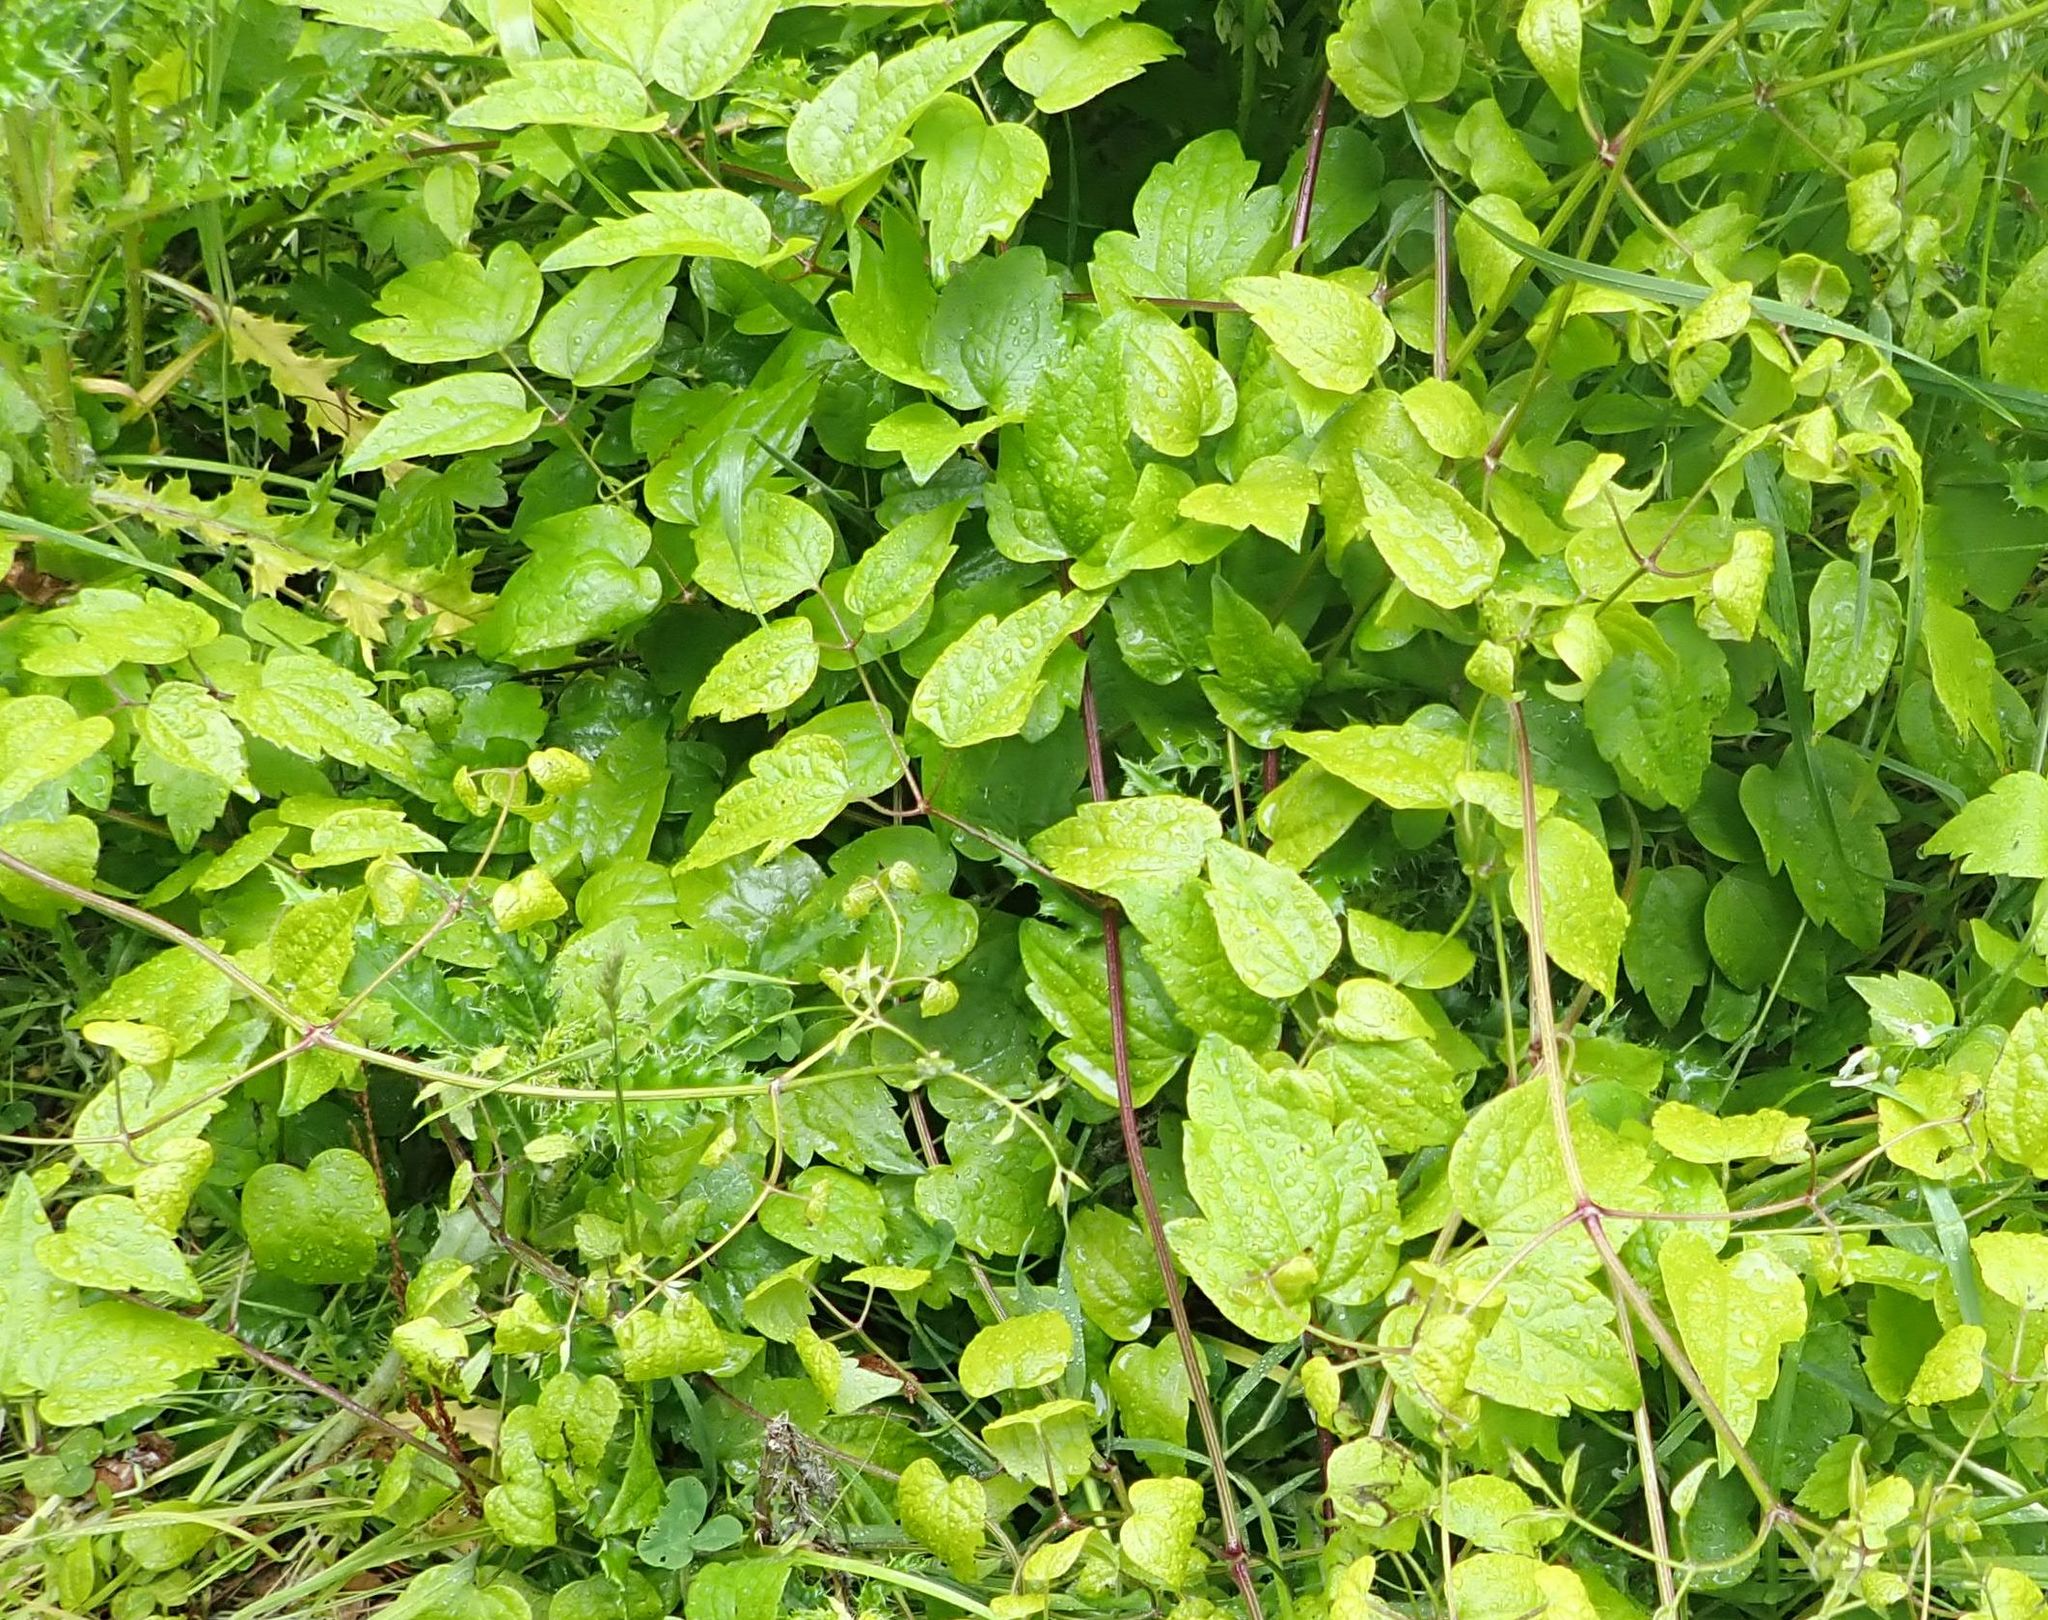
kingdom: Plantae
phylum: Tracheophyta
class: Magnoliopsida
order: Ranunculales
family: Ranunculaceae
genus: Clematis
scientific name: Clematis vitalba
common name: Evergreen clematis
